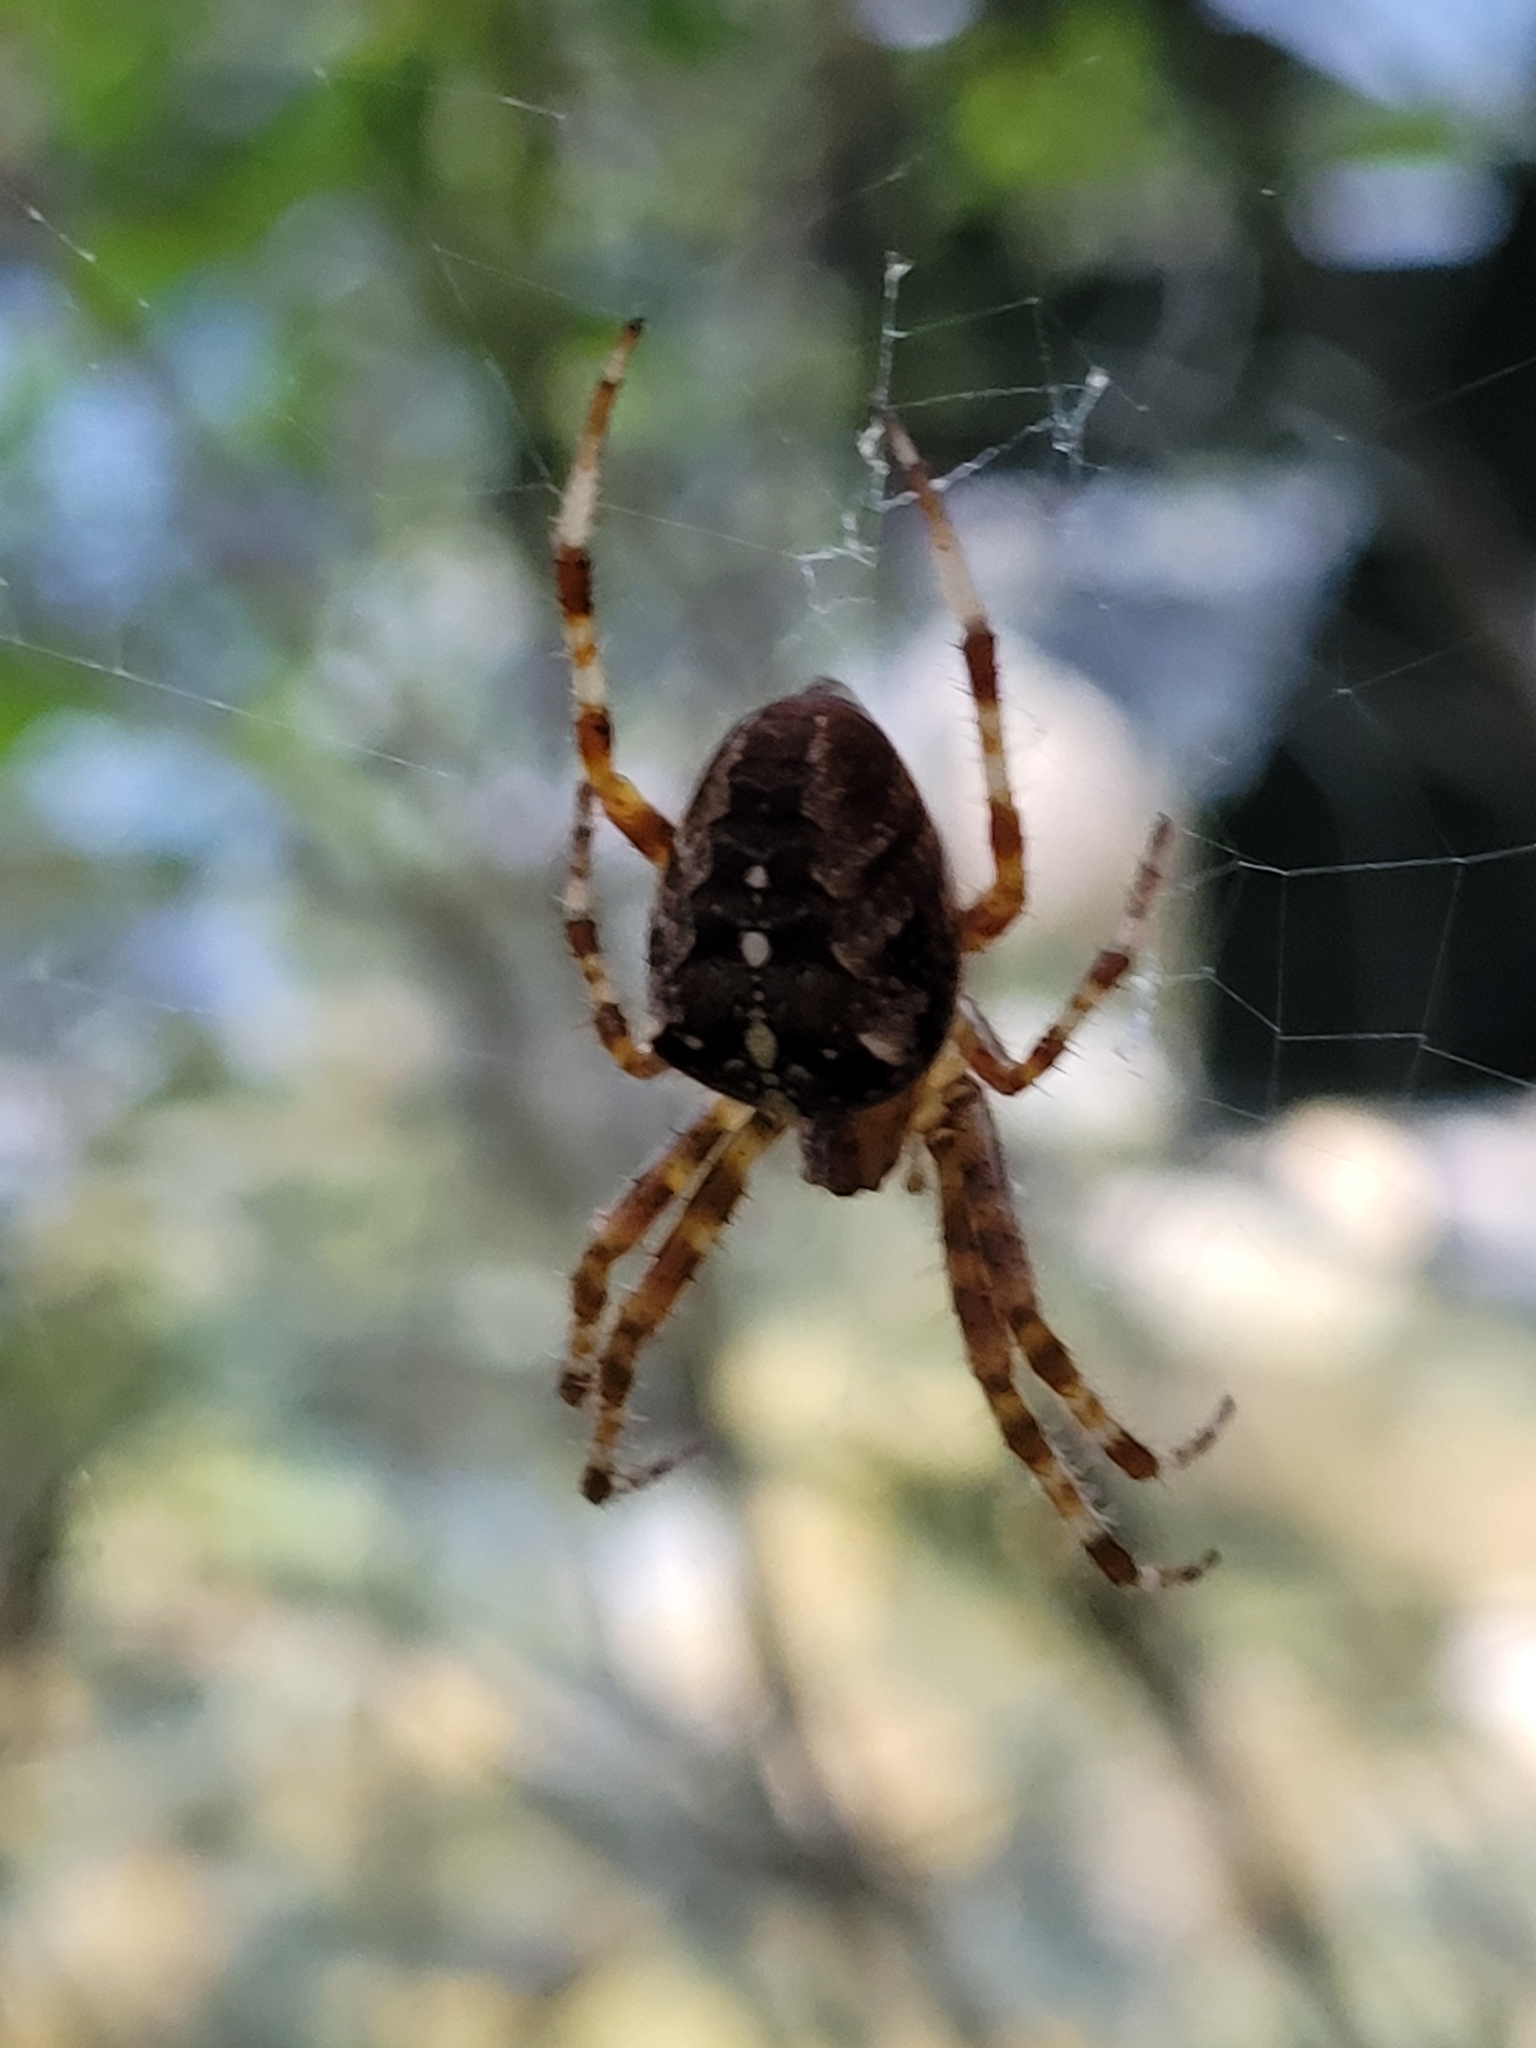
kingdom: Animalia
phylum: Arthropoda
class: Arachnida
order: Araneae
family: Araneidae
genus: Araneus
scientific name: Araneus diadematus
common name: Cross orbweaver
